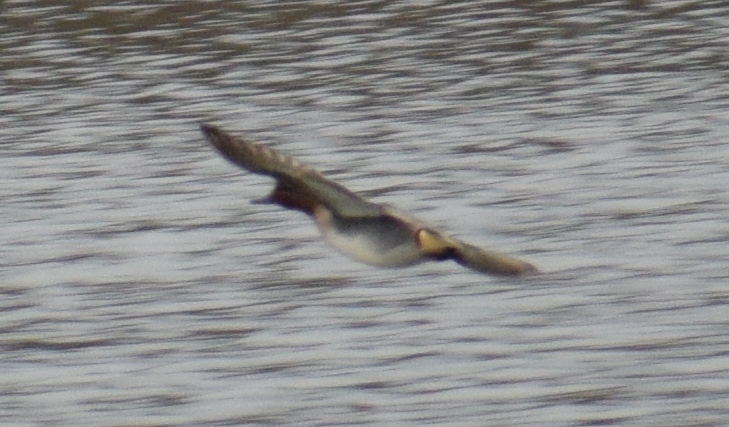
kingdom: Animalia
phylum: Chordata
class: Aves
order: Anseriformes
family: Anatidae
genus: Anas
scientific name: Anas crecca
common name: Eurasian teal
